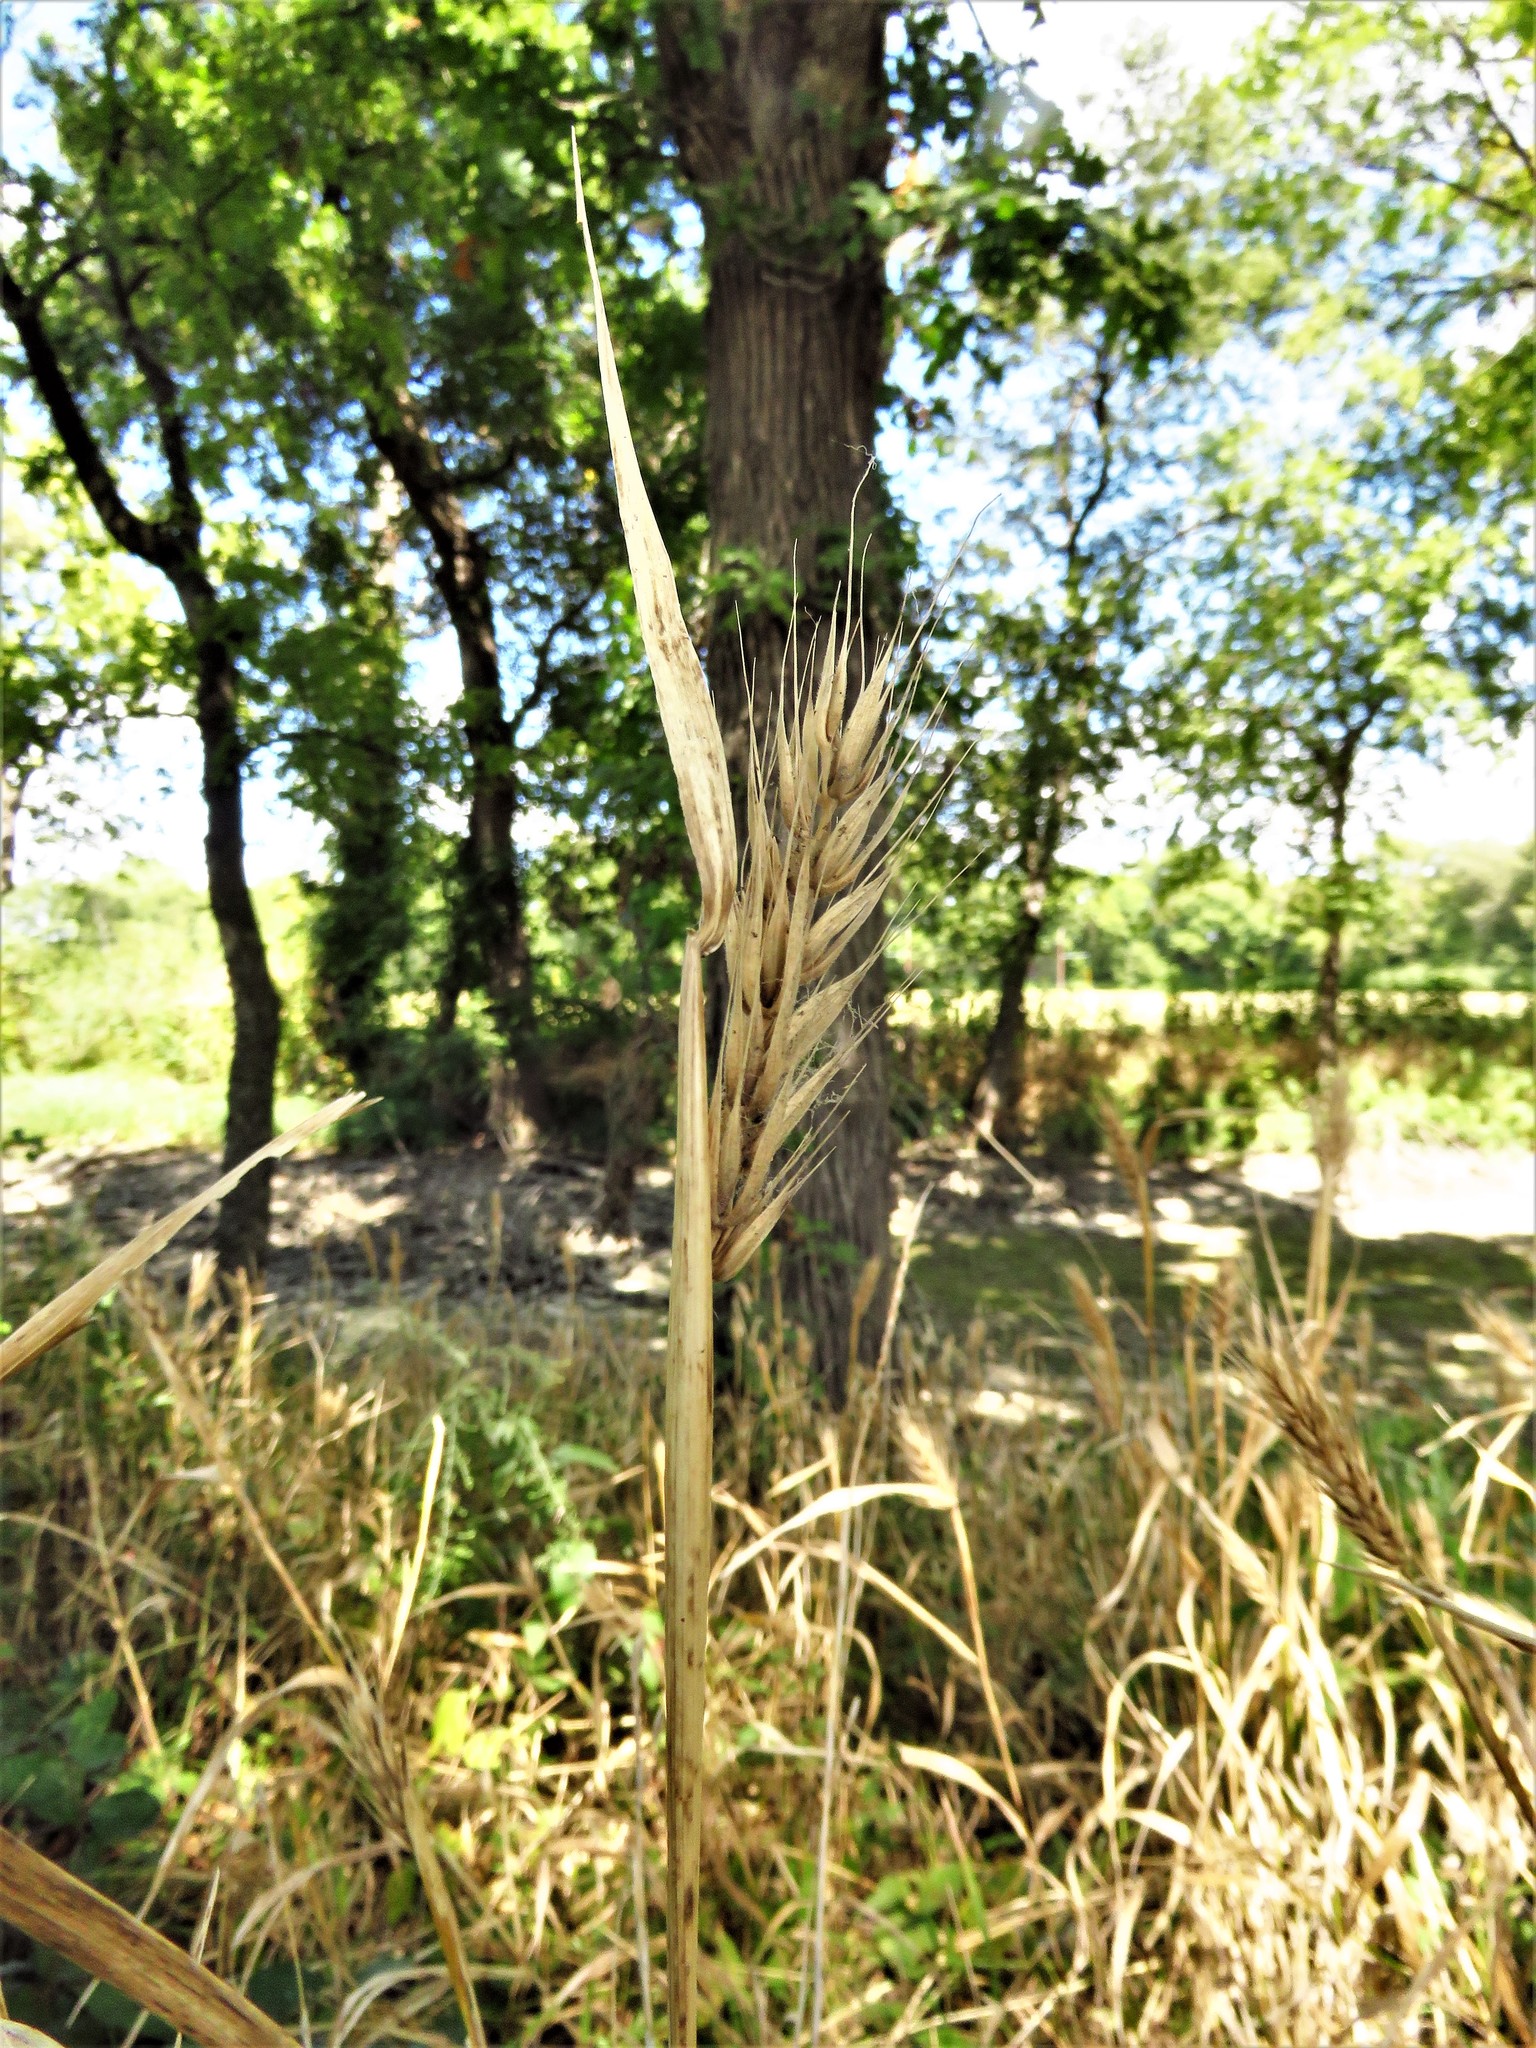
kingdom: Plantae
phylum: Tracheophyta
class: Liliopsida
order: Poales
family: Poaceae
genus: Elymus
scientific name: Elymus virginicus
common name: Common eastern wildrye
